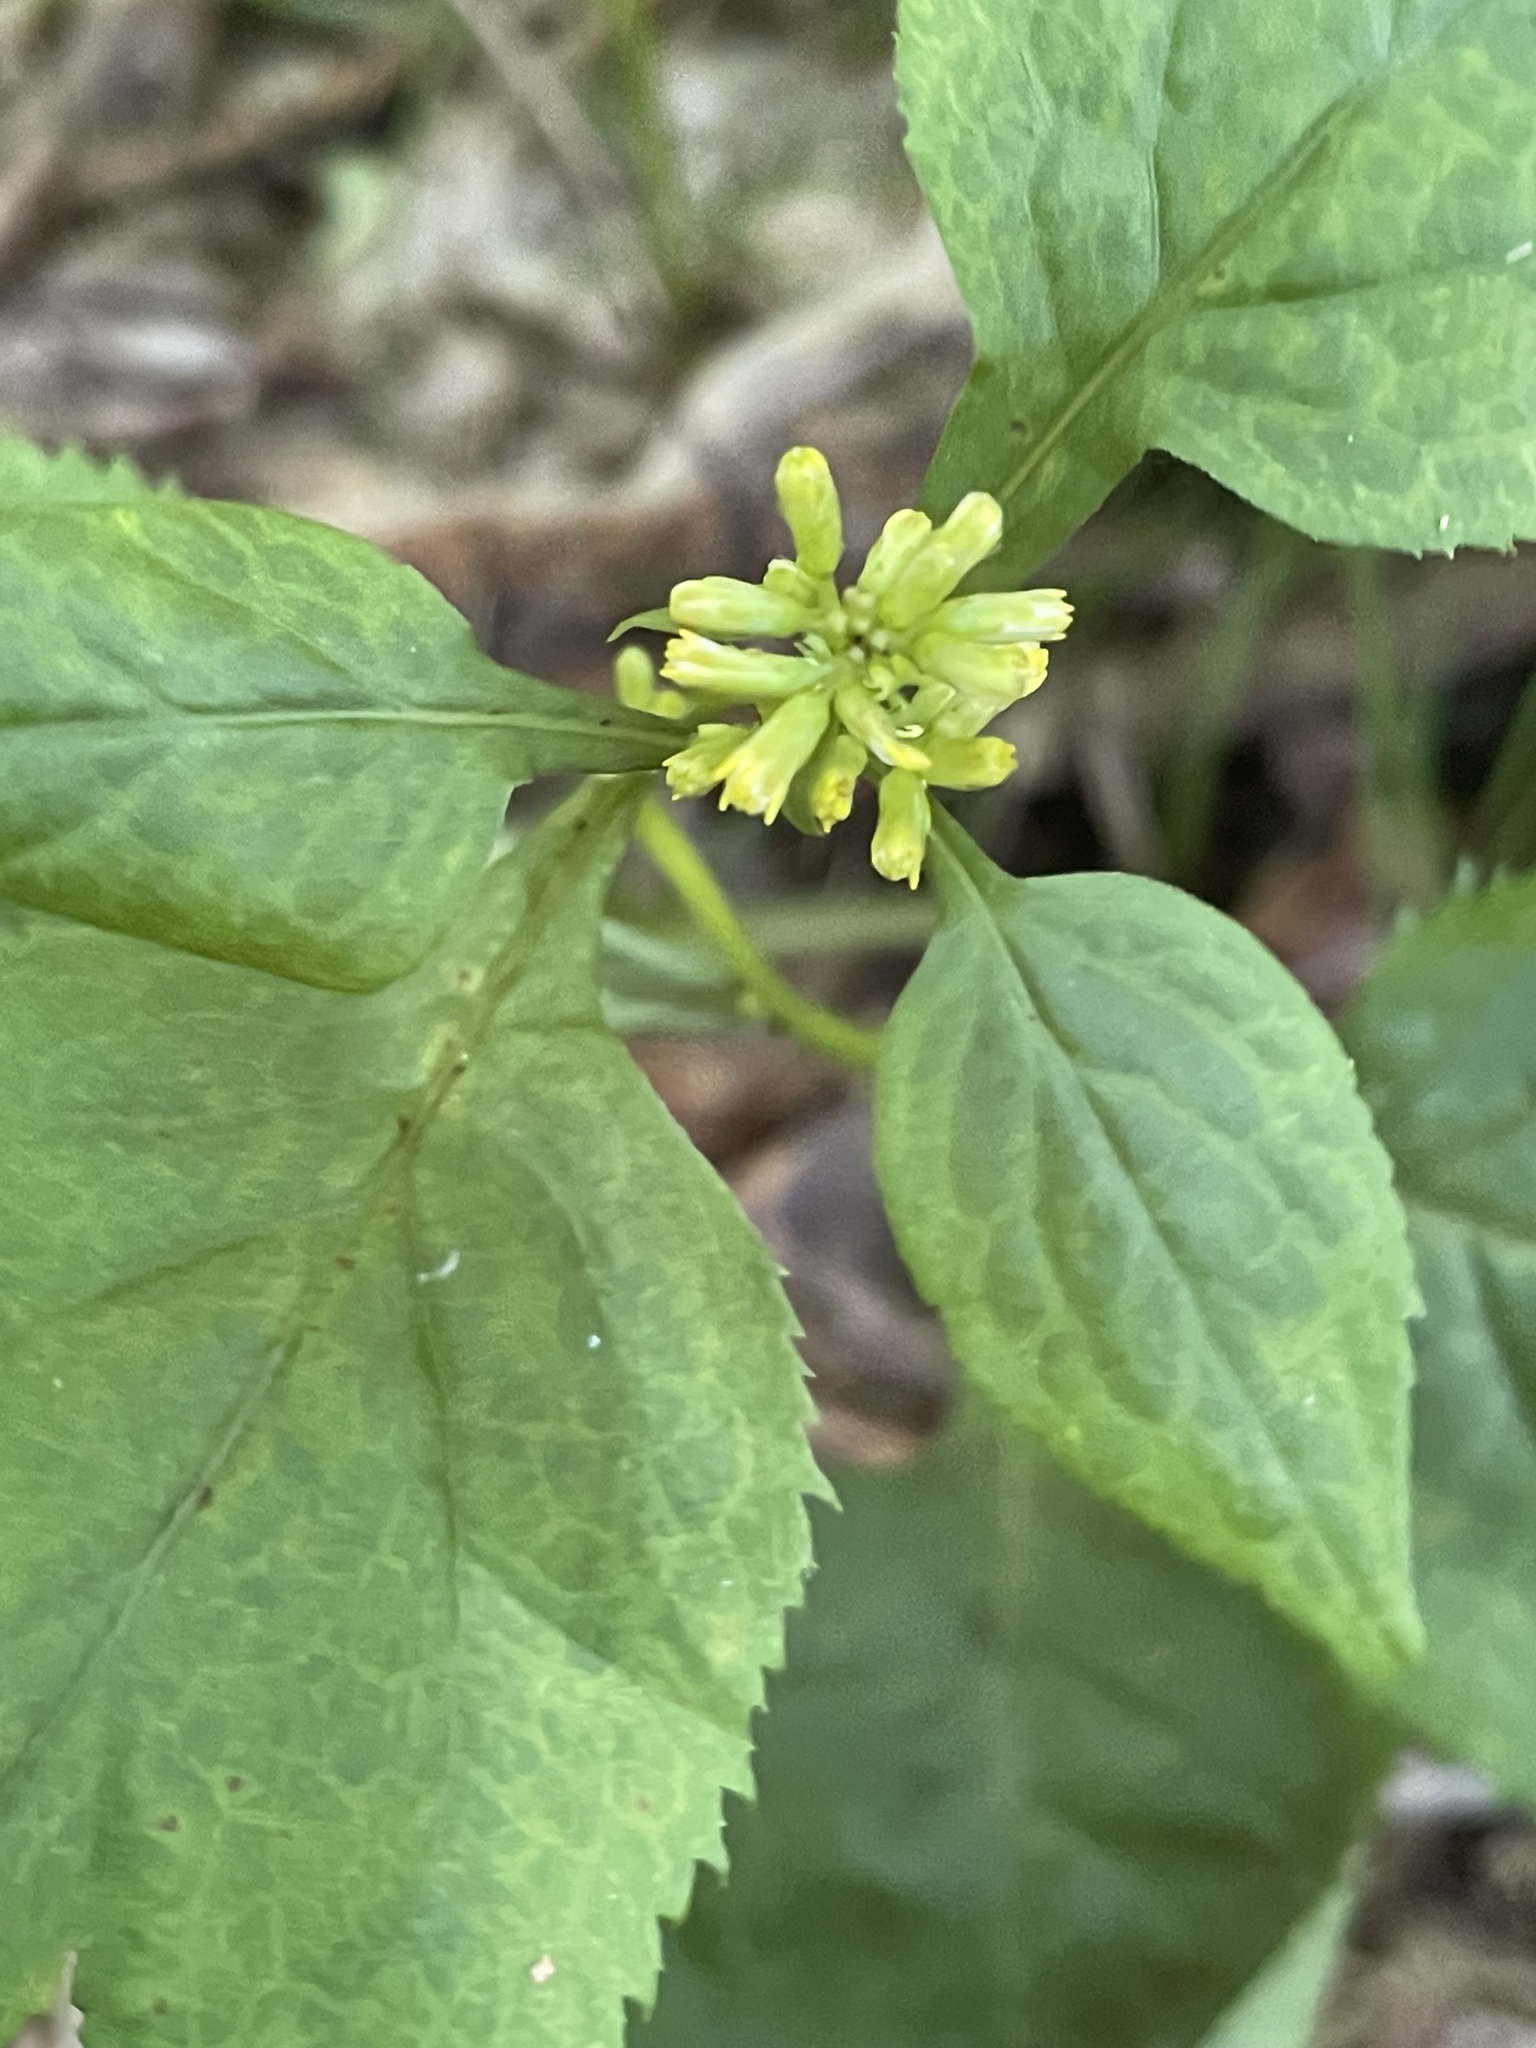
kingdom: Plantae
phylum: Tracheophyta
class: Magnoliopsida
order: Asterales
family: Asteraceae
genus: Solidago
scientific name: Solidago flexicaulis
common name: Zig-zag goldenrod
